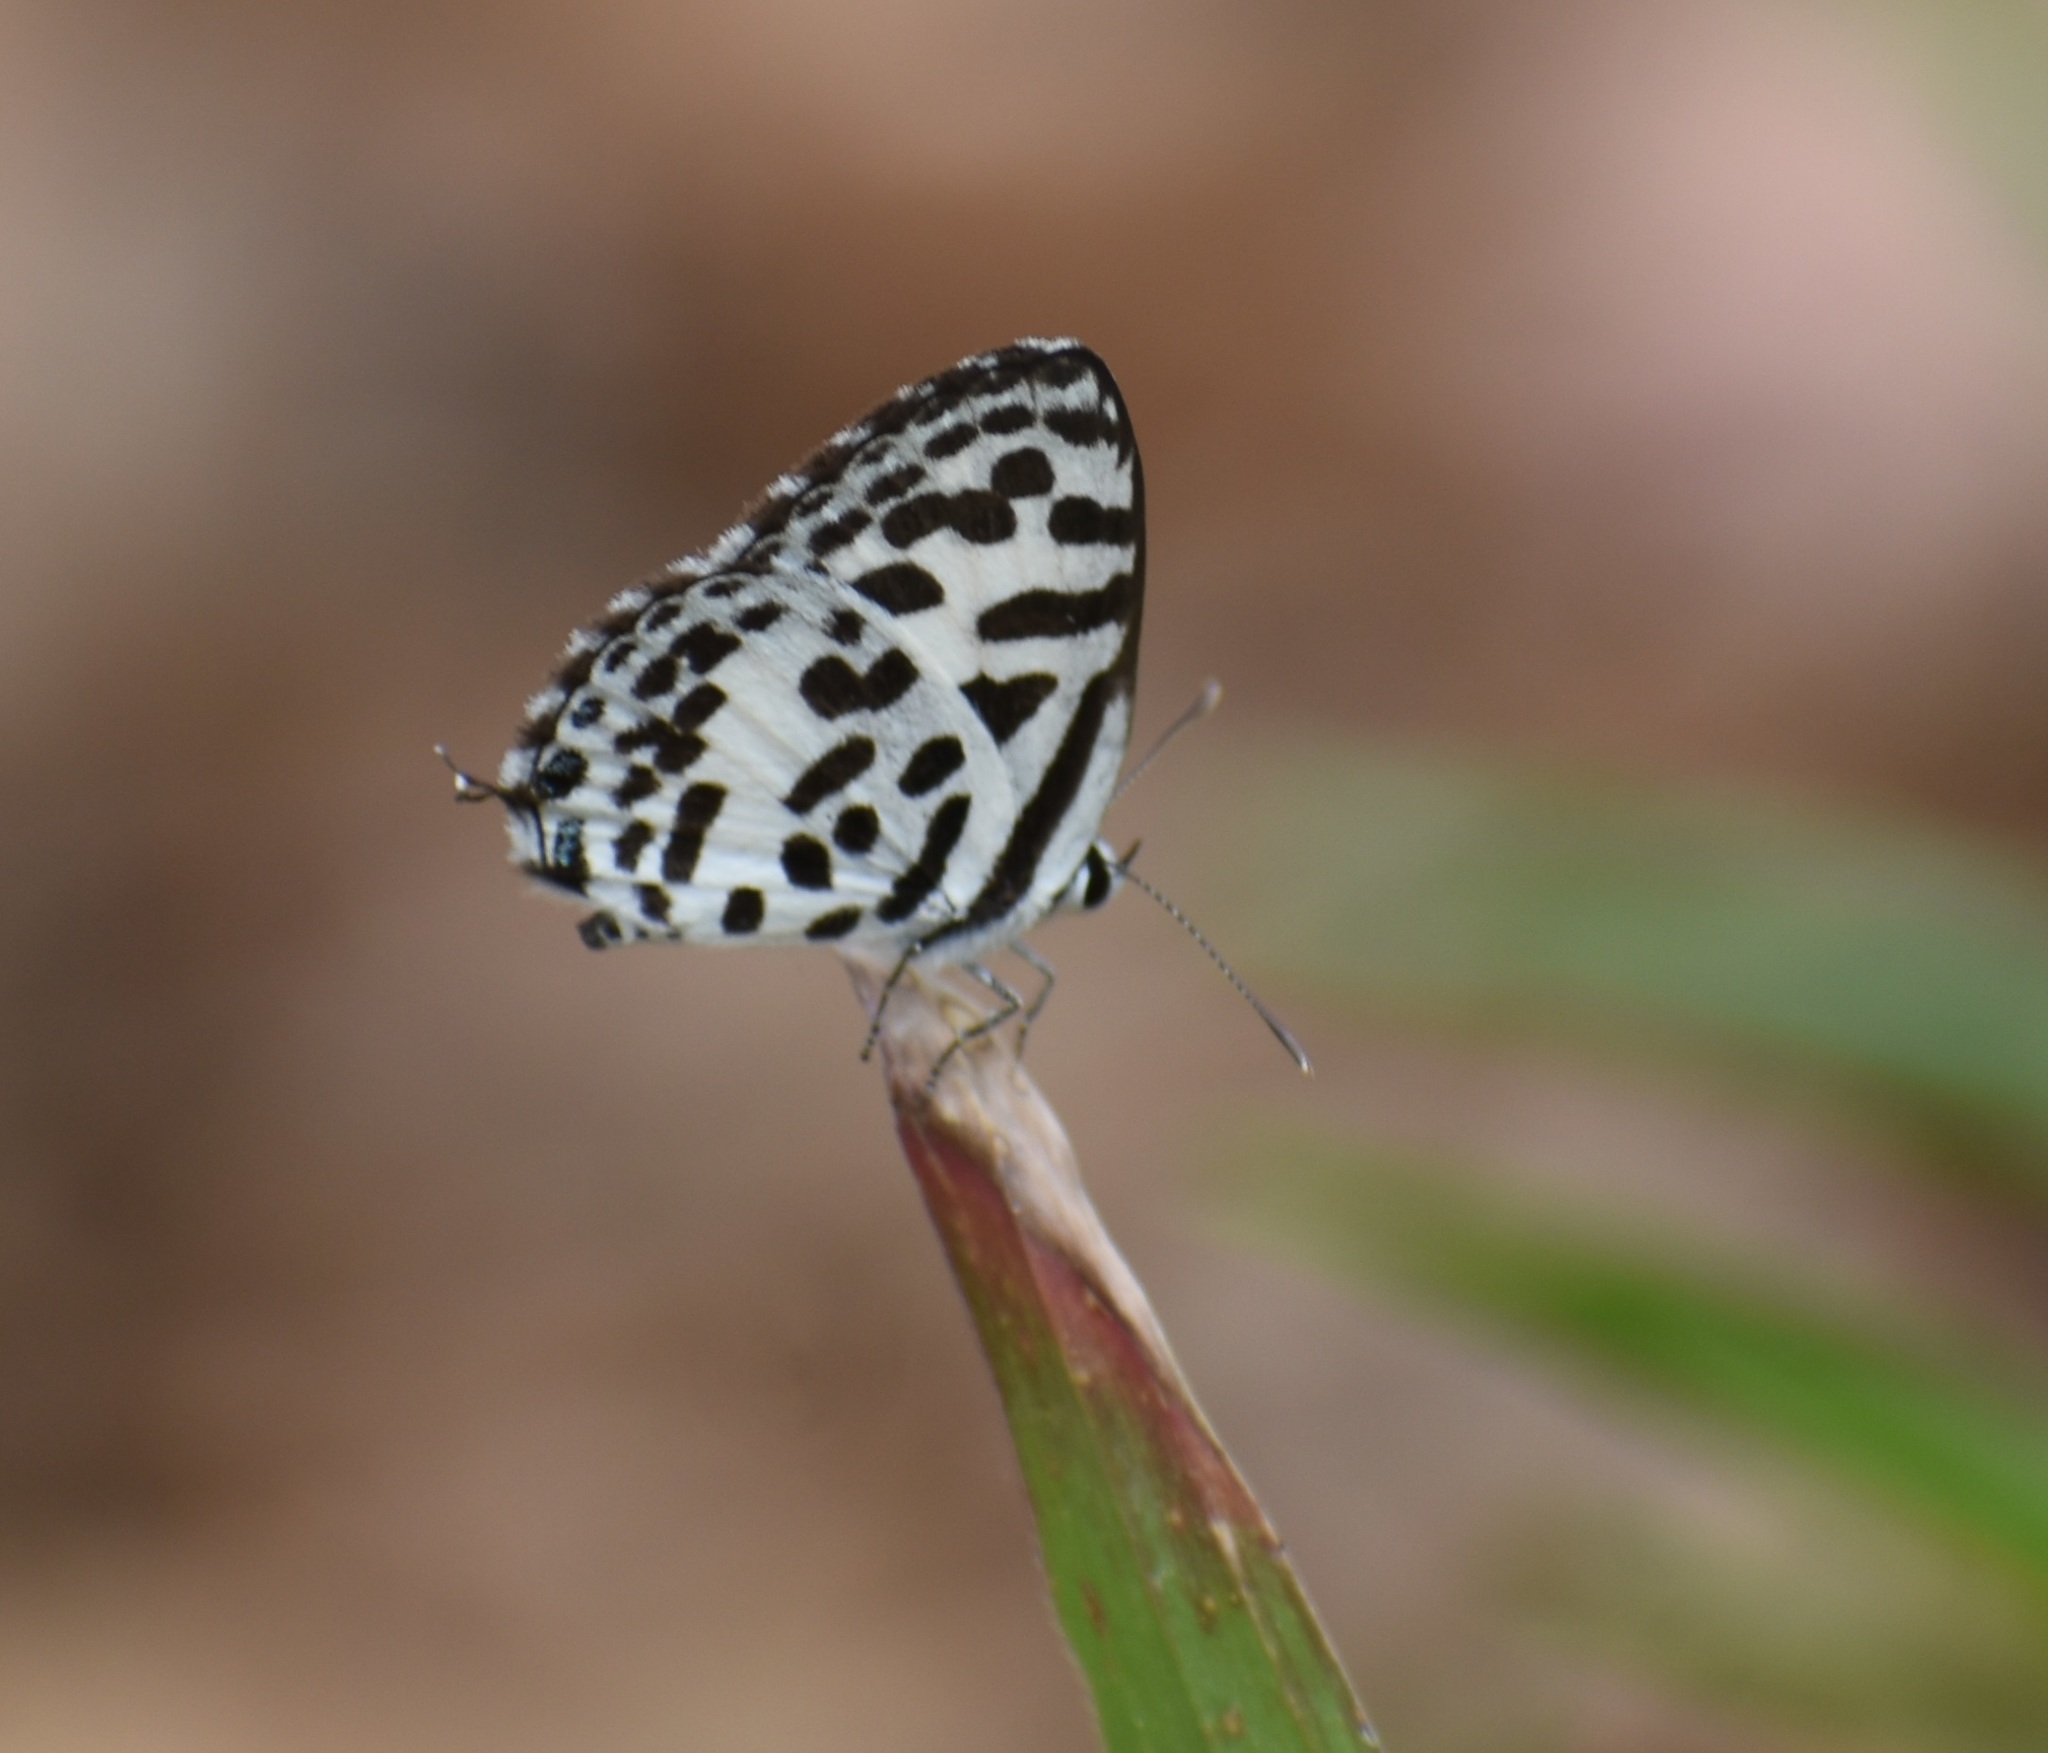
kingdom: Animalia
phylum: Arthropoda
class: Insecta
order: Lepidoptera
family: Lycaenidae
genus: Castalius
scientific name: Castalius rosimon
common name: Common pierrot
